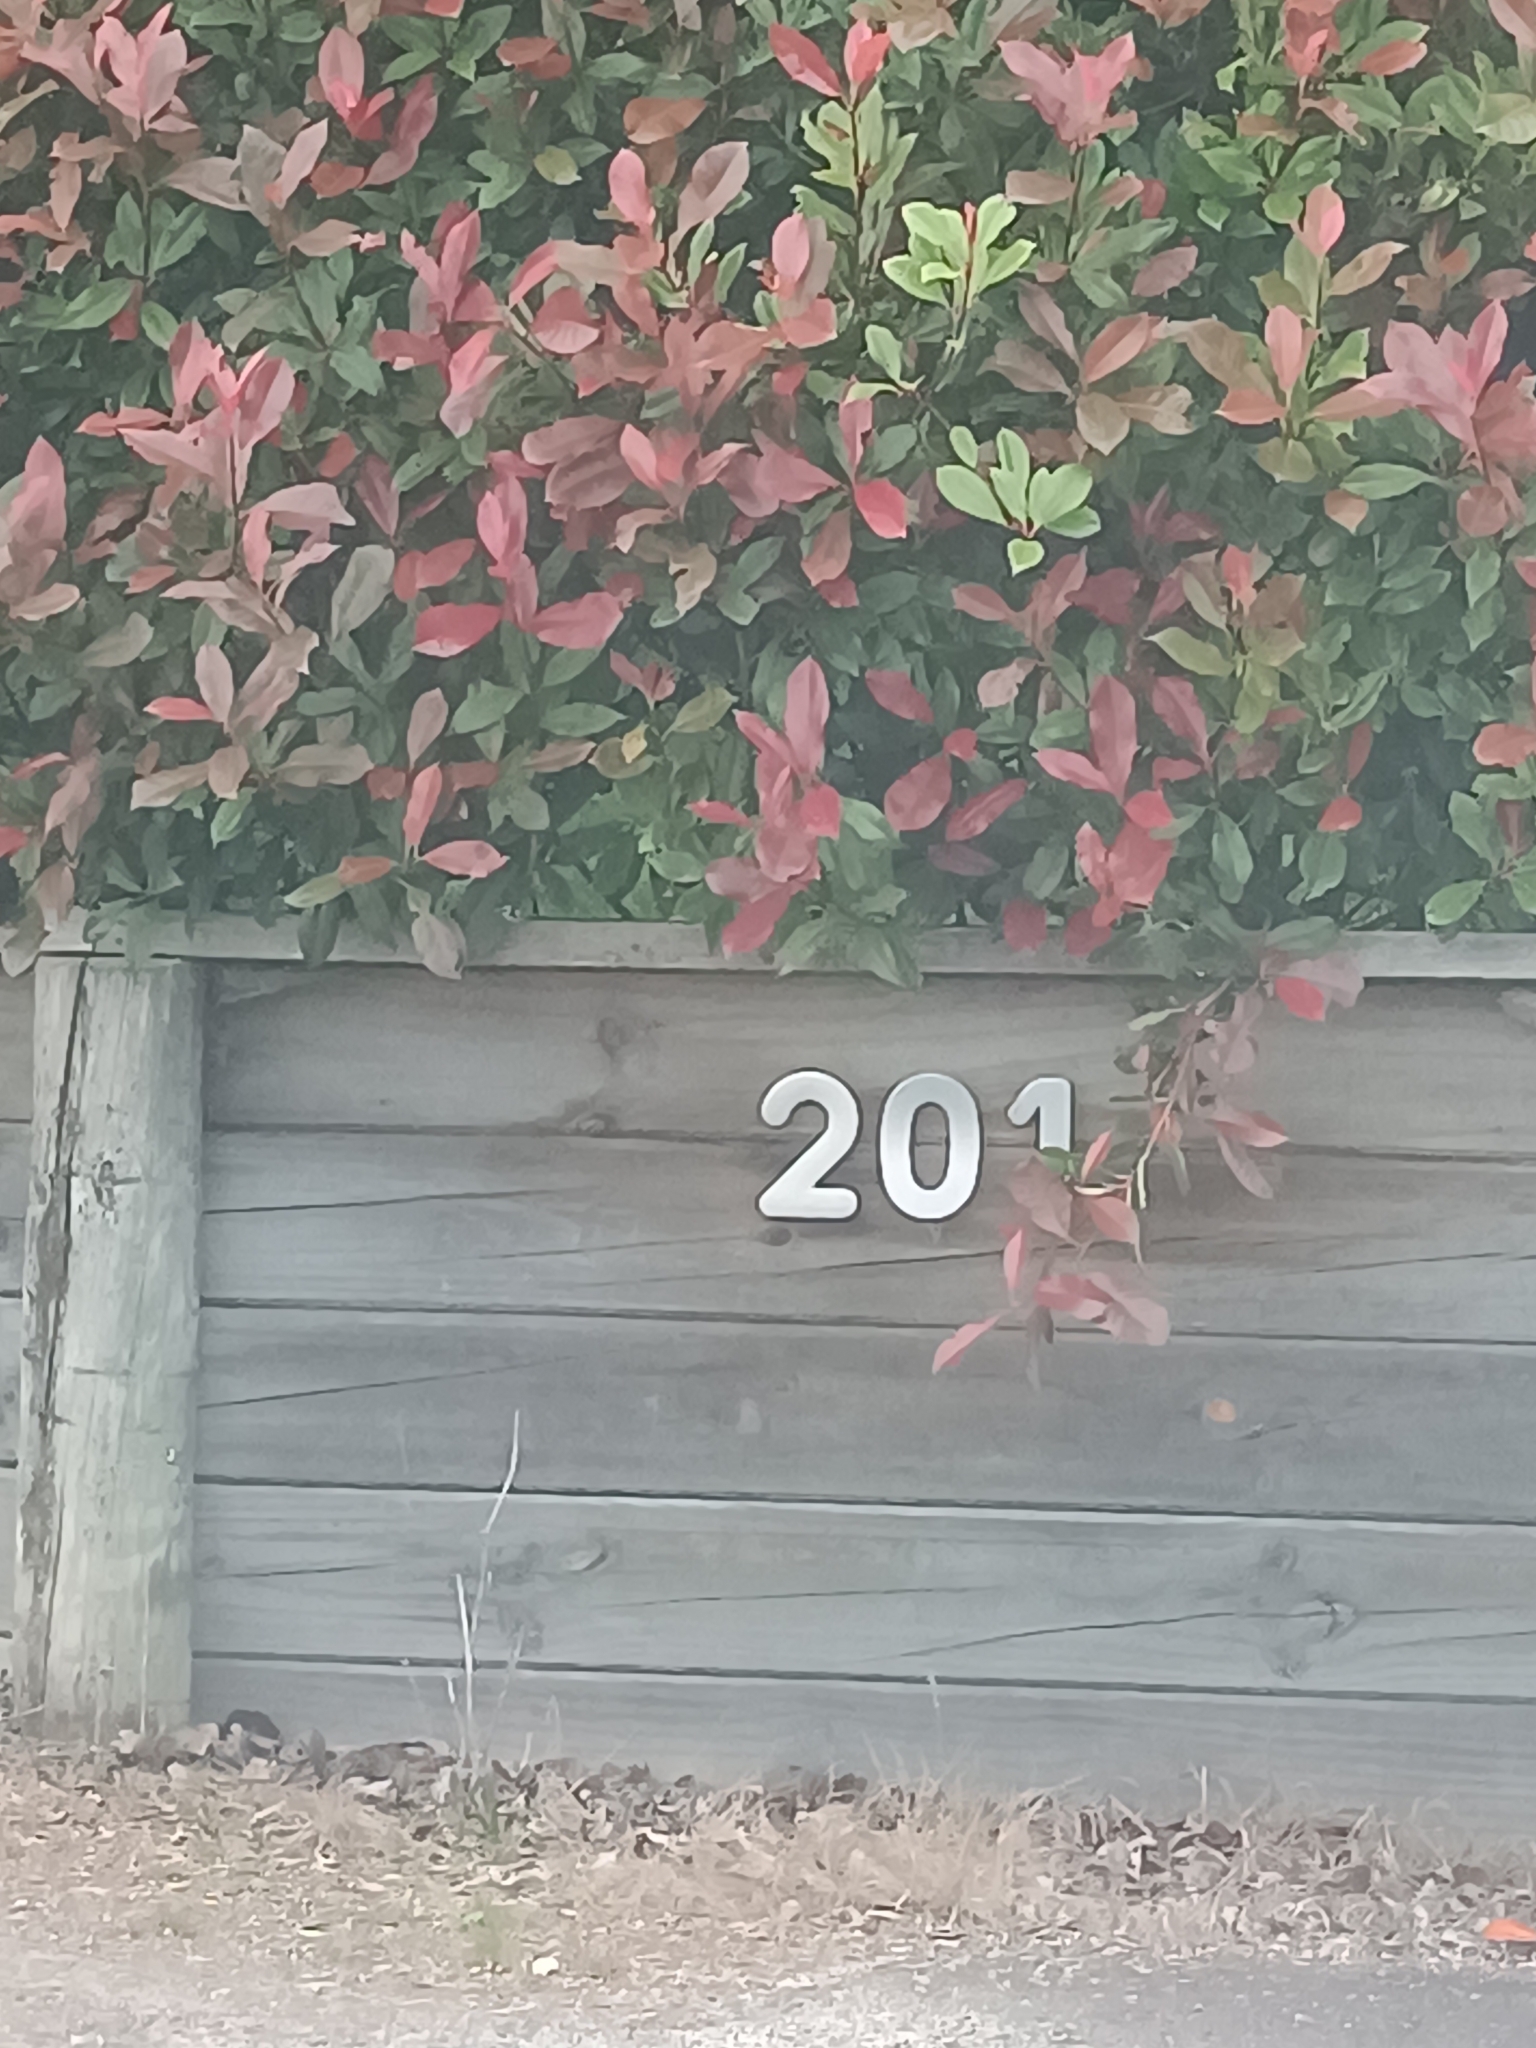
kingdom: Plantae
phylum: Tracheophyta
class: Magnoliopsida
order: Lamiales
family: Verbenaceae
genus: Lantana
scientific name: Lantana camara
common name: Lantana
